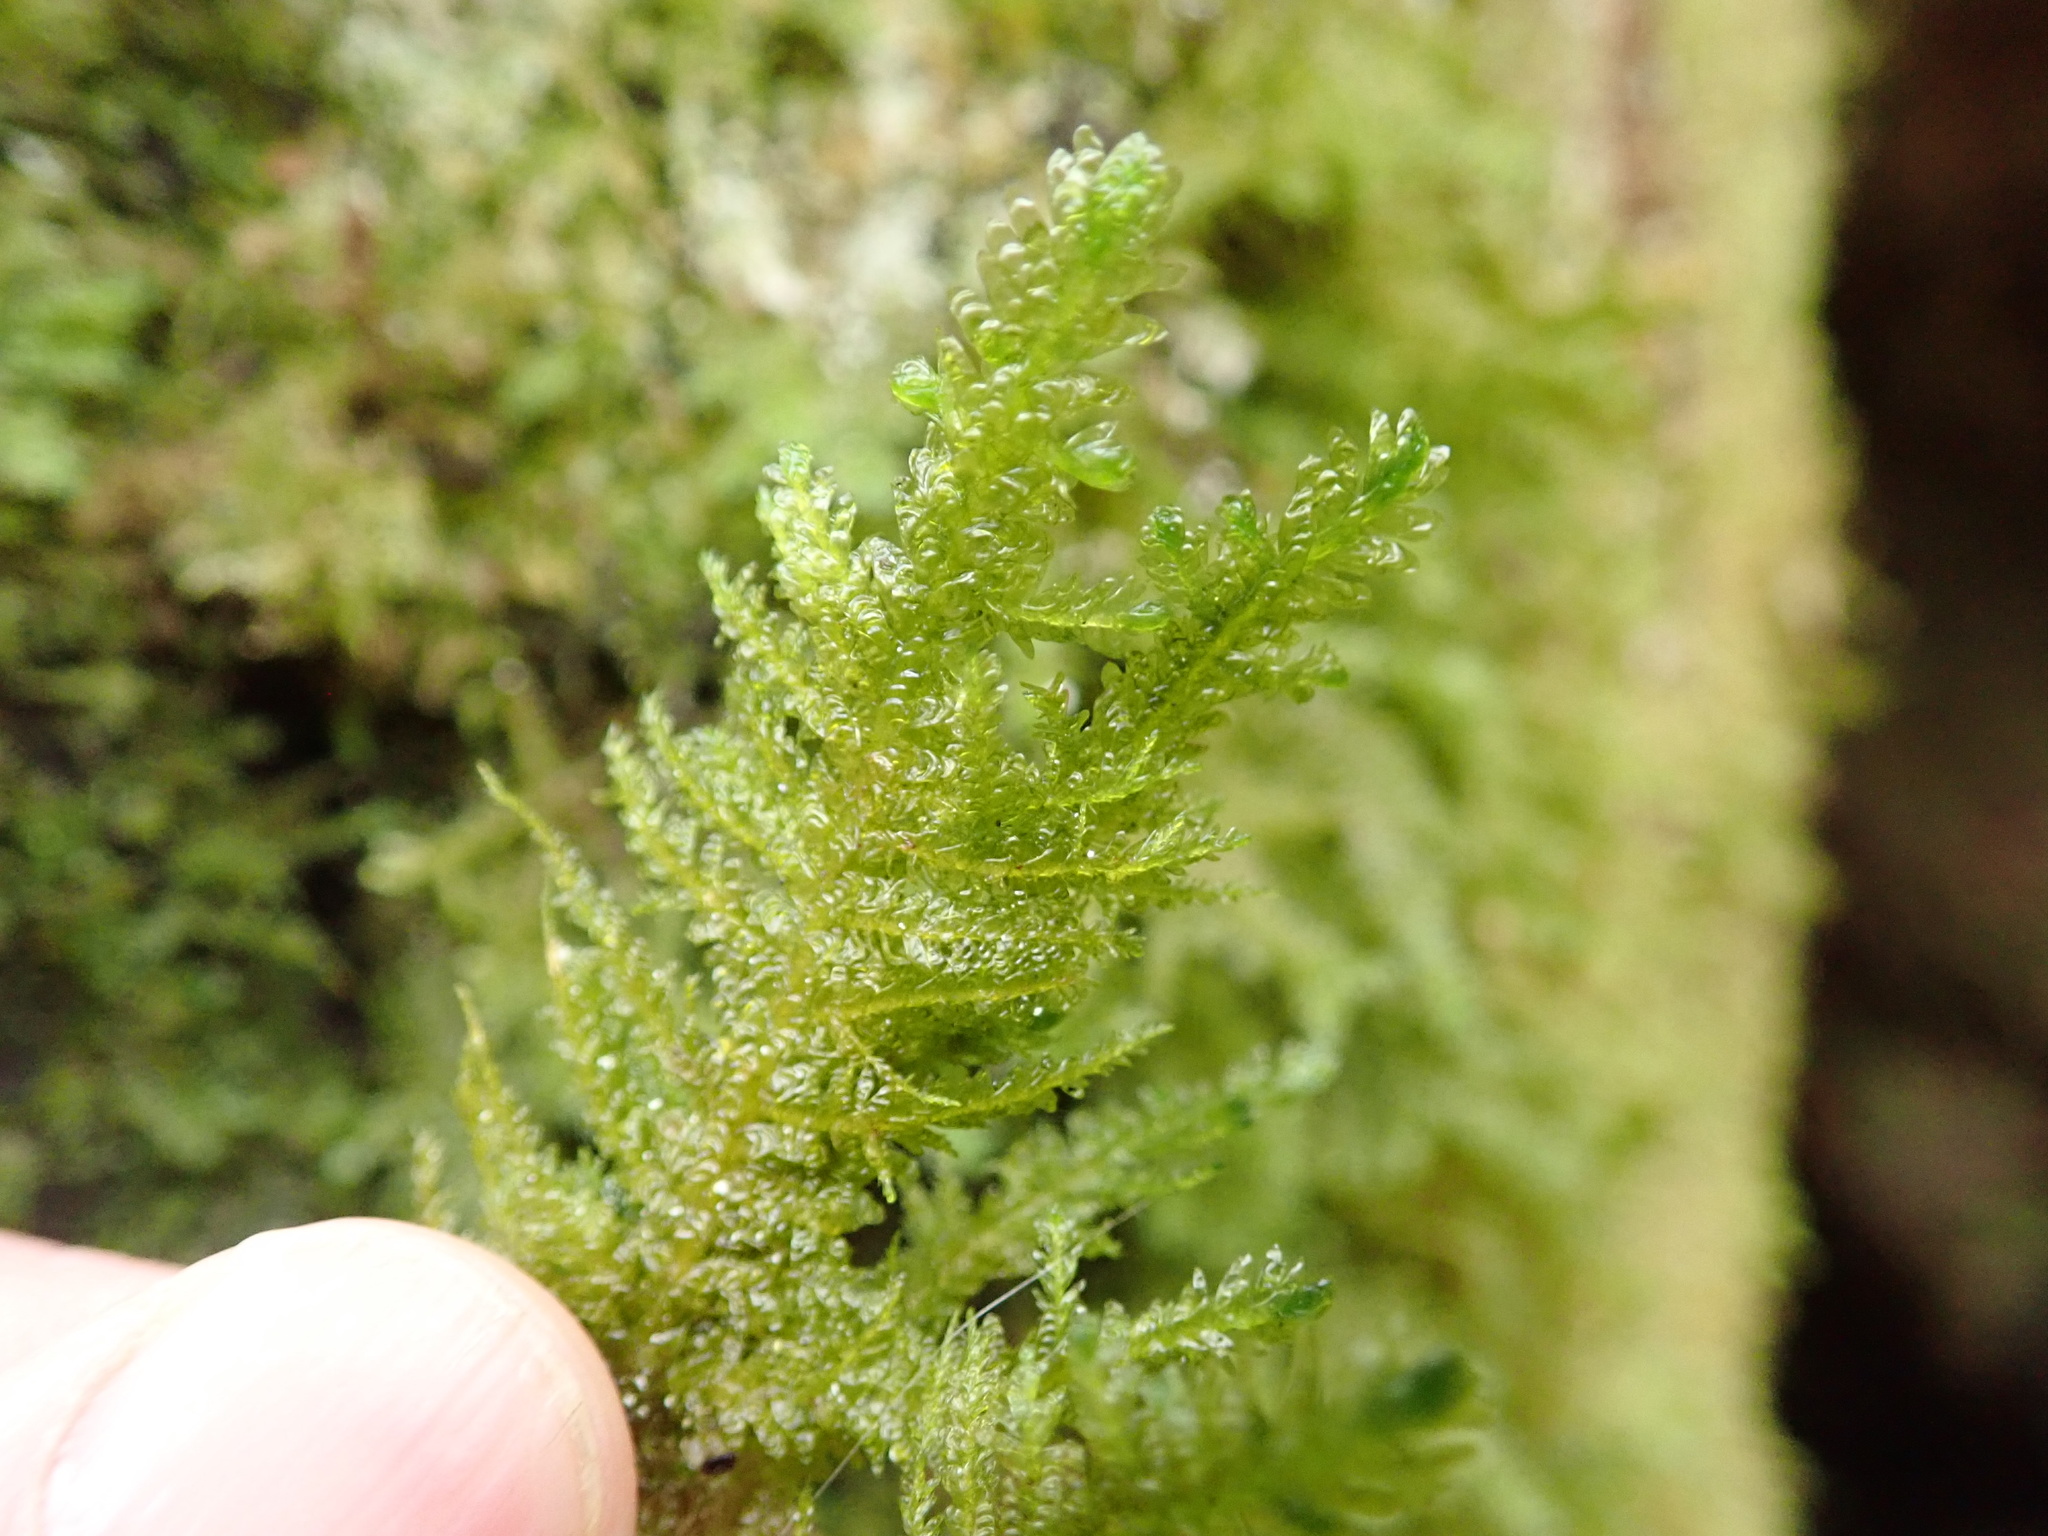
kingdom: Plantae
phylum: Bryophyta
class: Bryopsida
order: Hypnales
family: Neckeraceae
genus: Metaneckera
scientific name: Metaneckera menziesii
